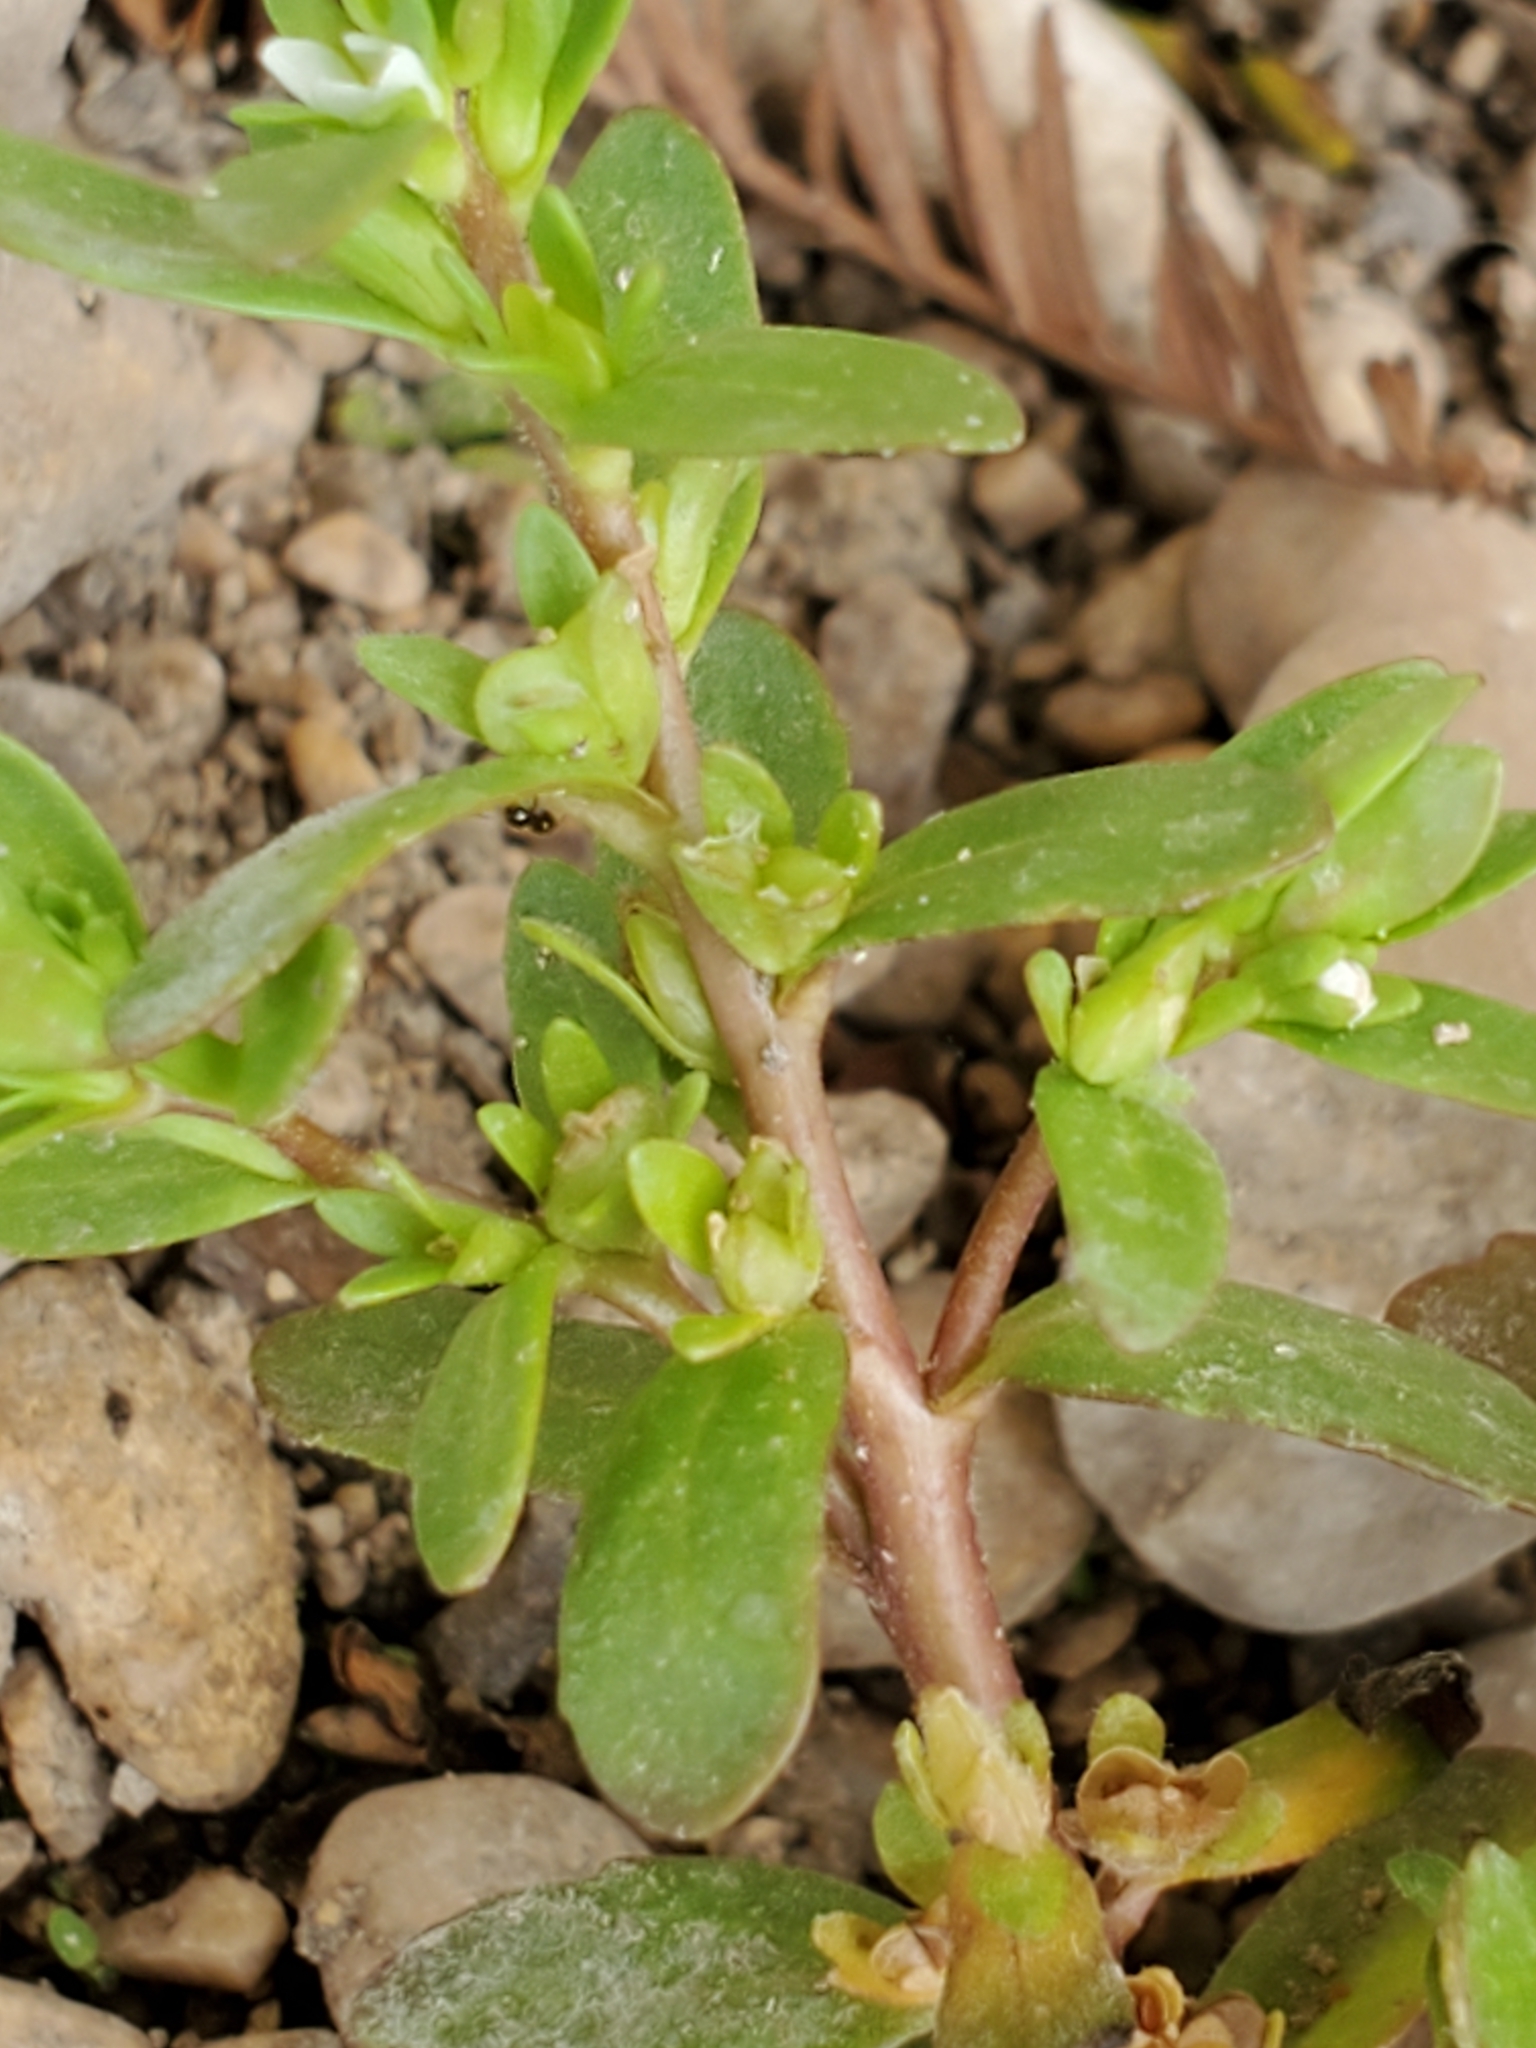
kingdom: Plantae
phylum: Tracheophyta
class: Magnoliopsida
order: Lamiales
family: Plantaginaceae
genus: Veronica
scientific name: Veronica peregrina
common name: Neckweed
